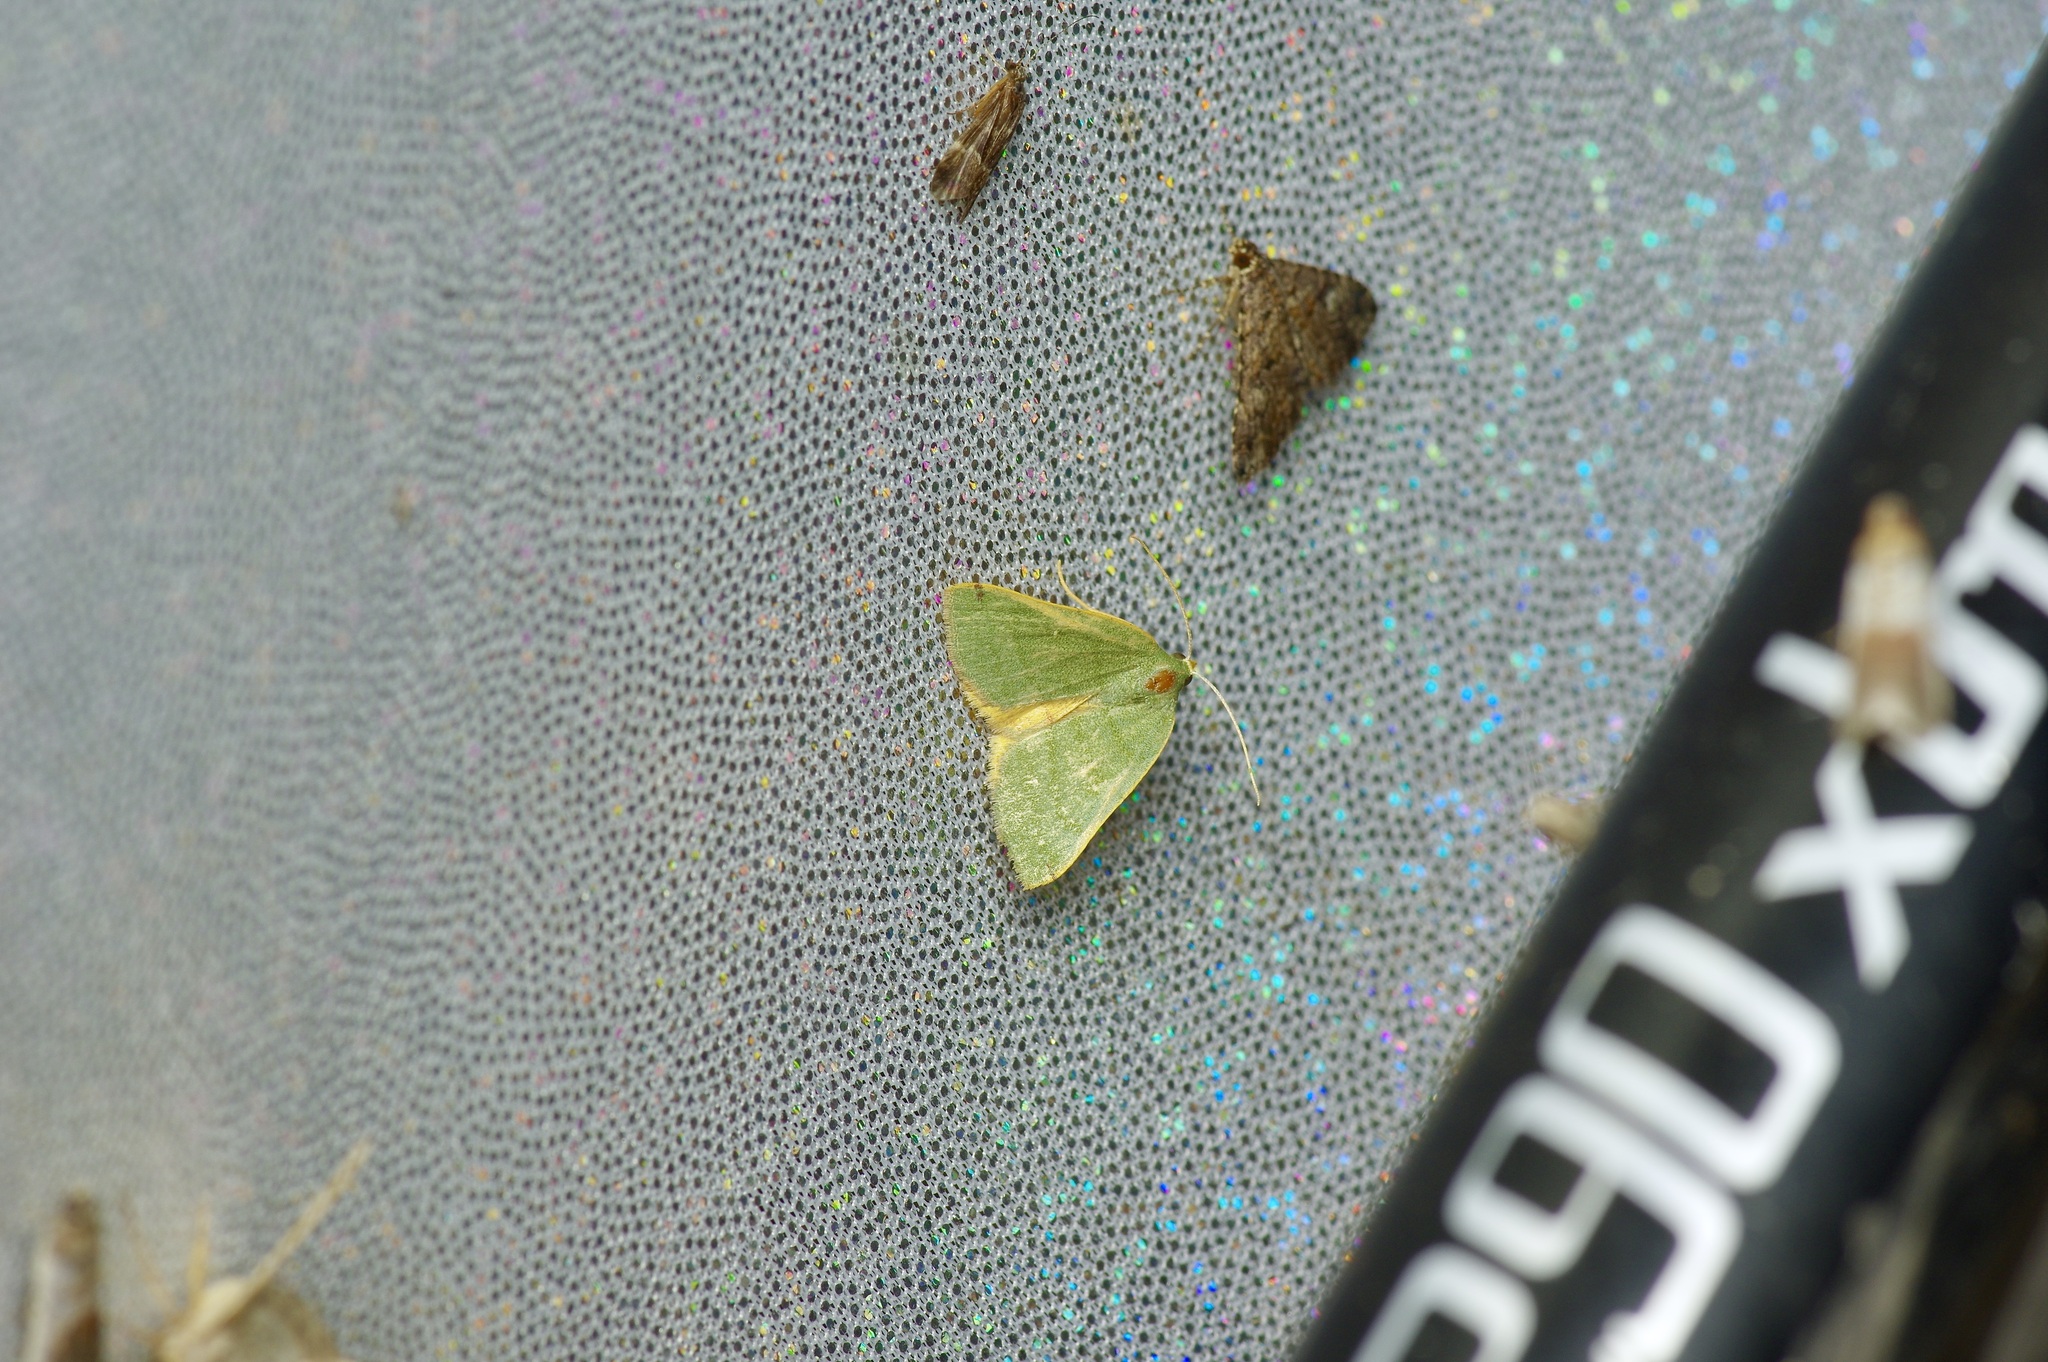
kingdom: Animalia
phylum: Arthropoda
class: Insecta
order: Lepidoptera
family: Geometridae
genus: Chloraspilates
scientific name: Chloraspilates bicoloraria
